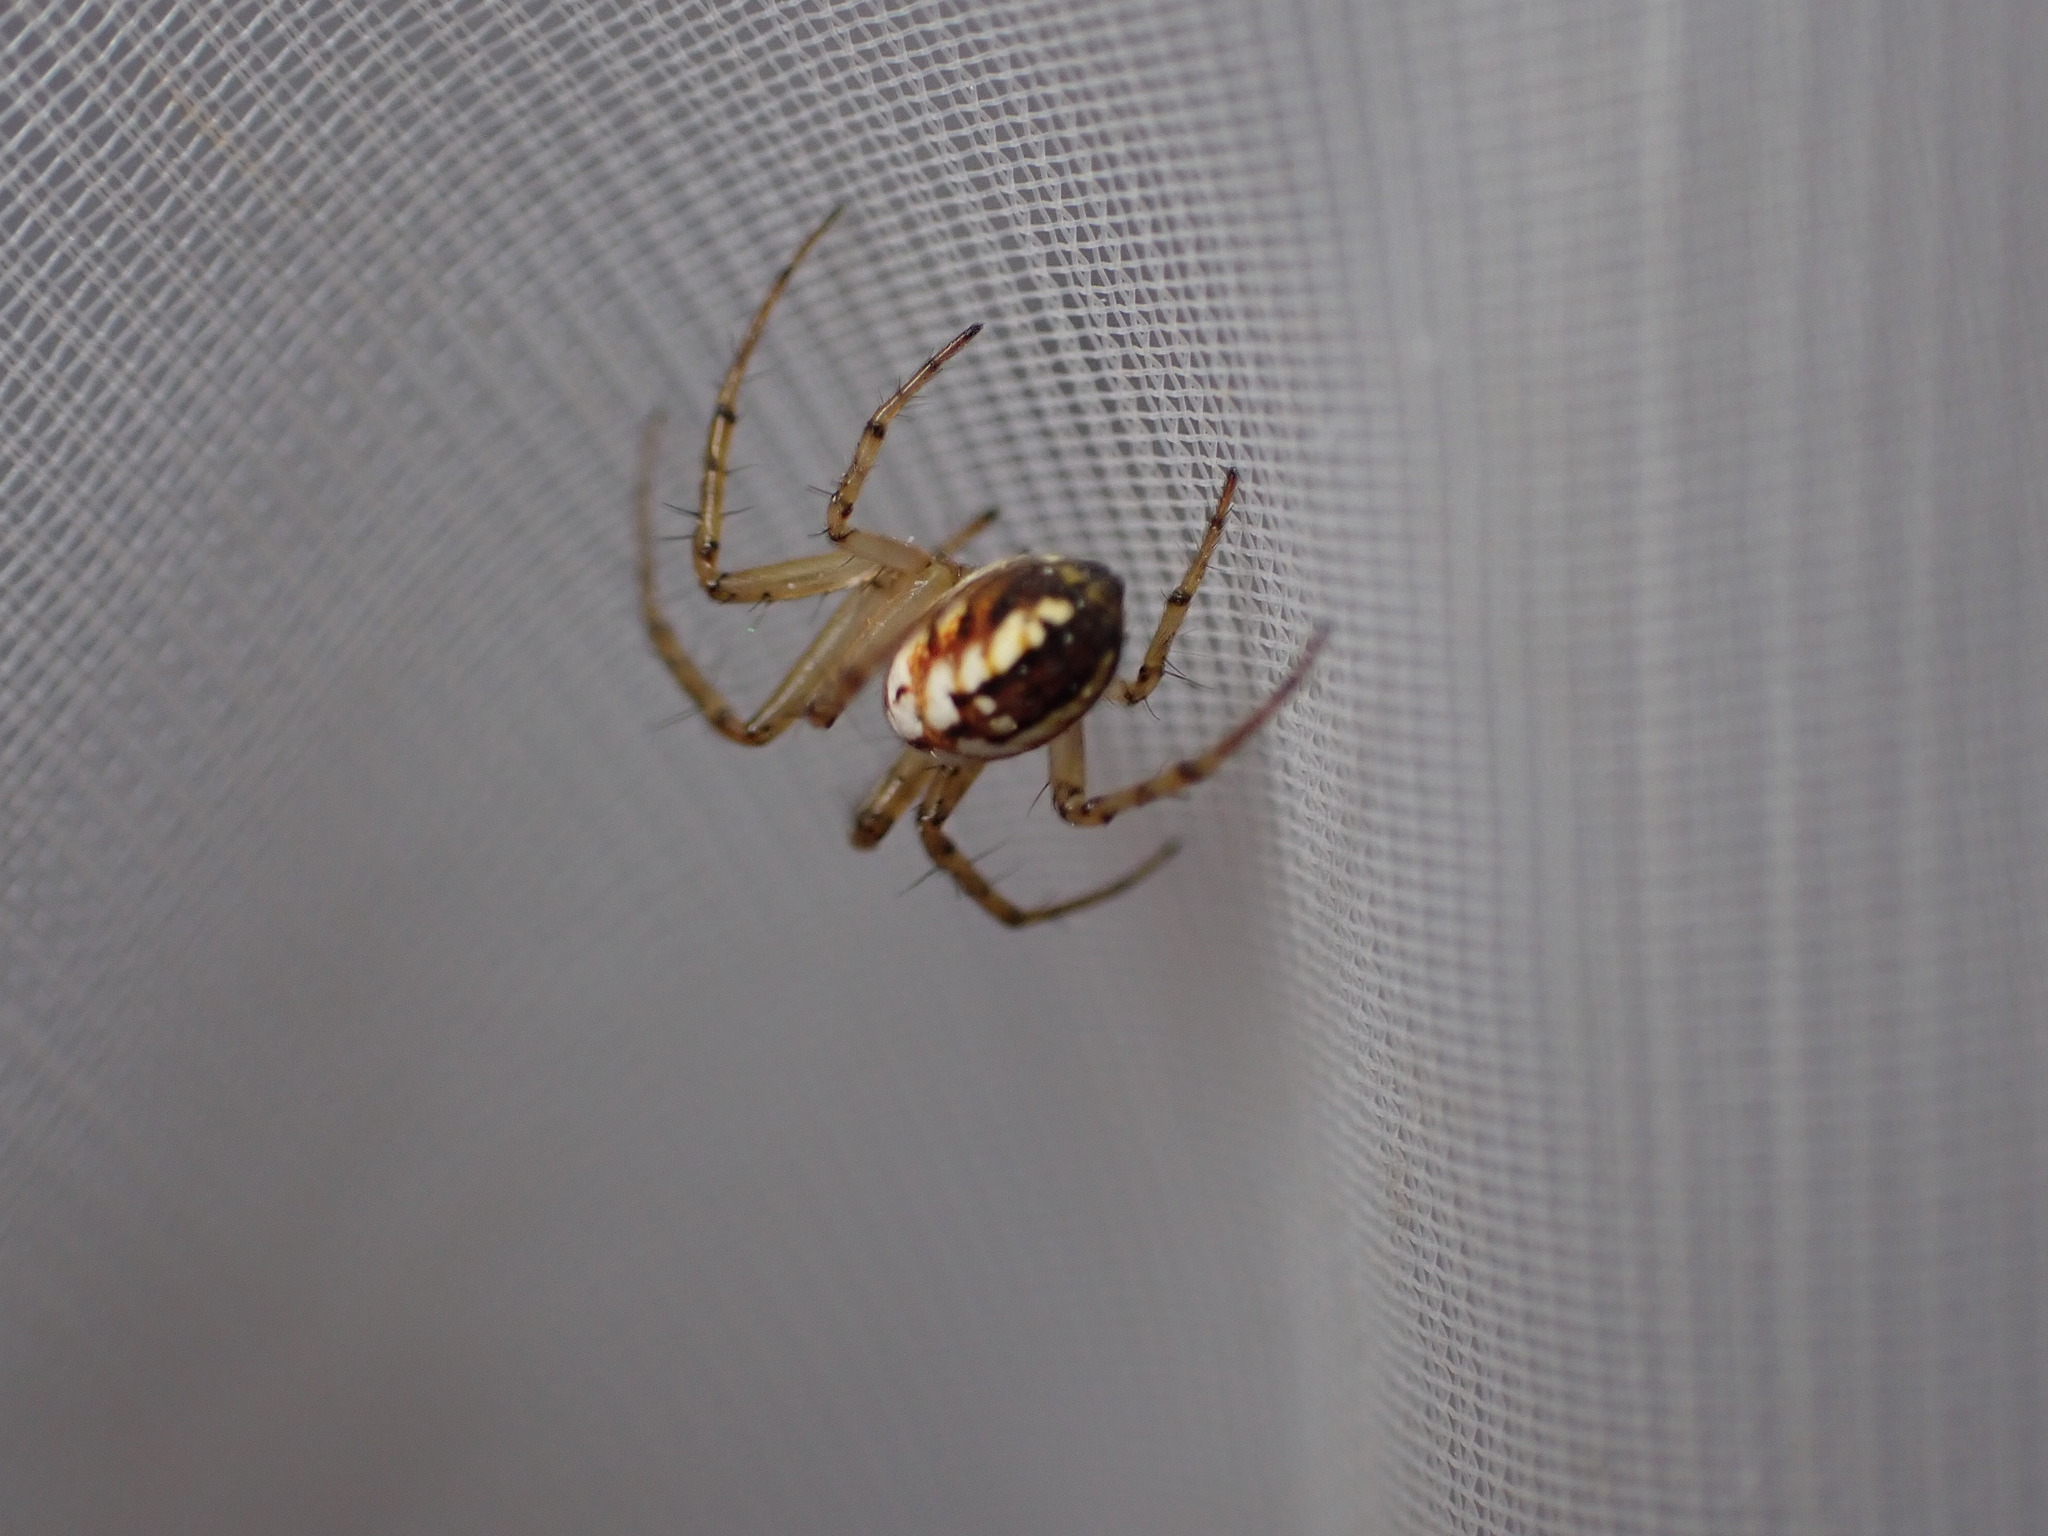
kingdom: Animalia
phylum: Arthropoda
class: Arachnida
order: Araneae
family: Araneidae
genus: Mangora
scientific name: Mangora acalypha
